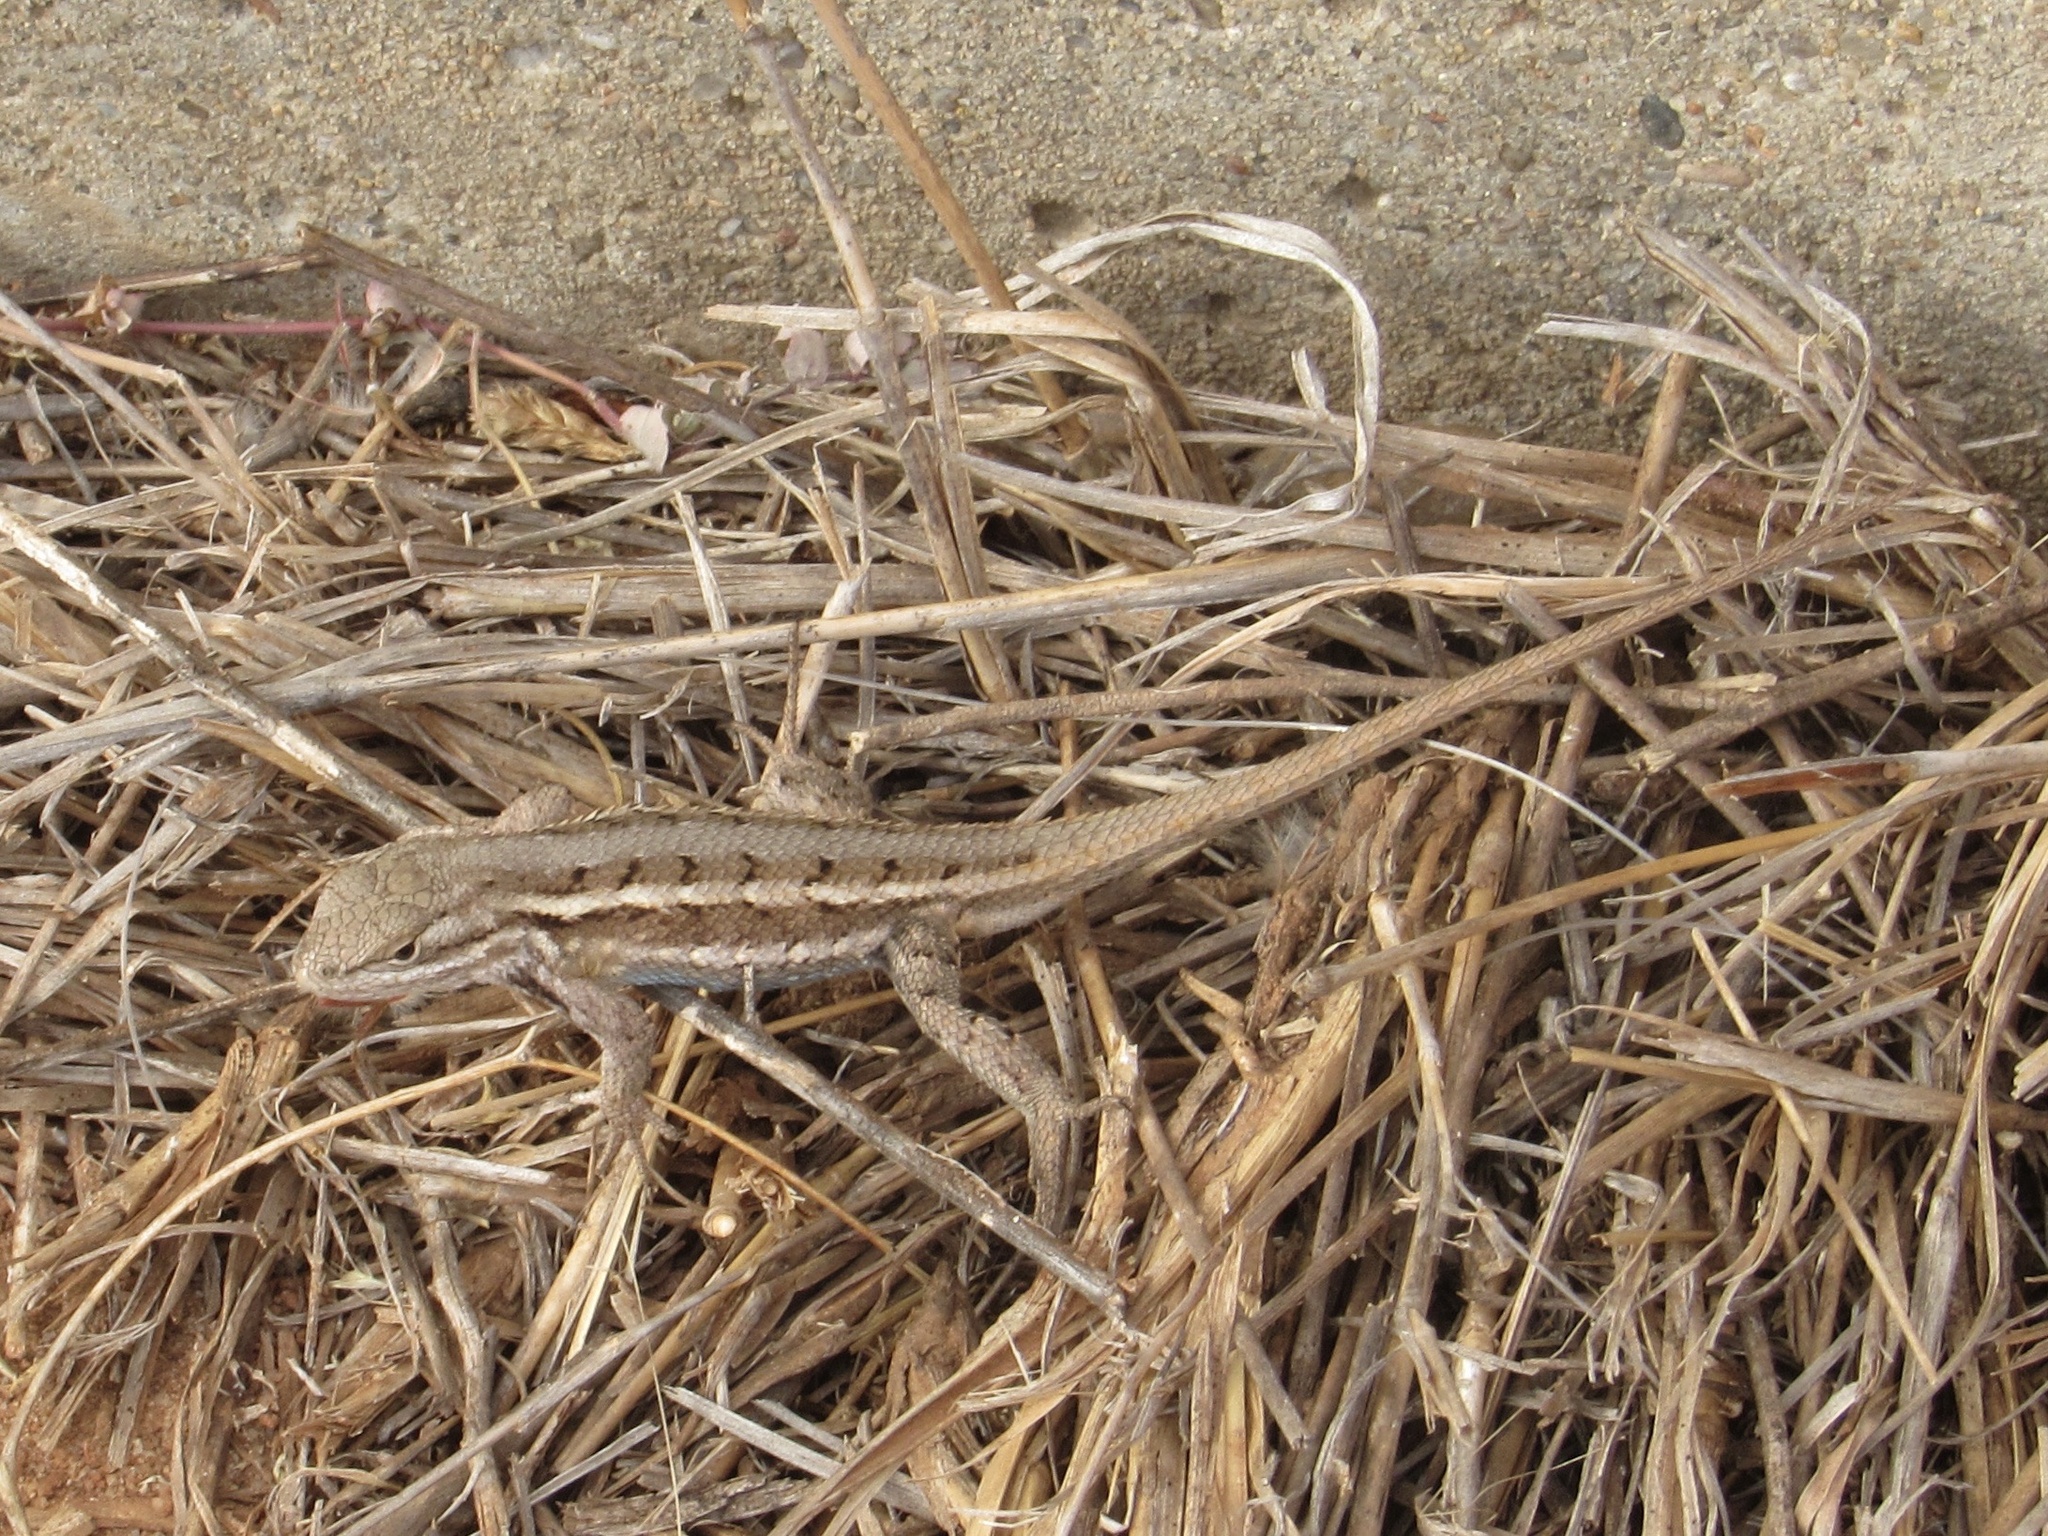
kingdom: Animalia
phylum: Chordata
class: Squamata
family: Phrynosomatidae
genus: Sceloporus
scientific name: Sceloporus consobrinus
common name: Southern prairie lizard
